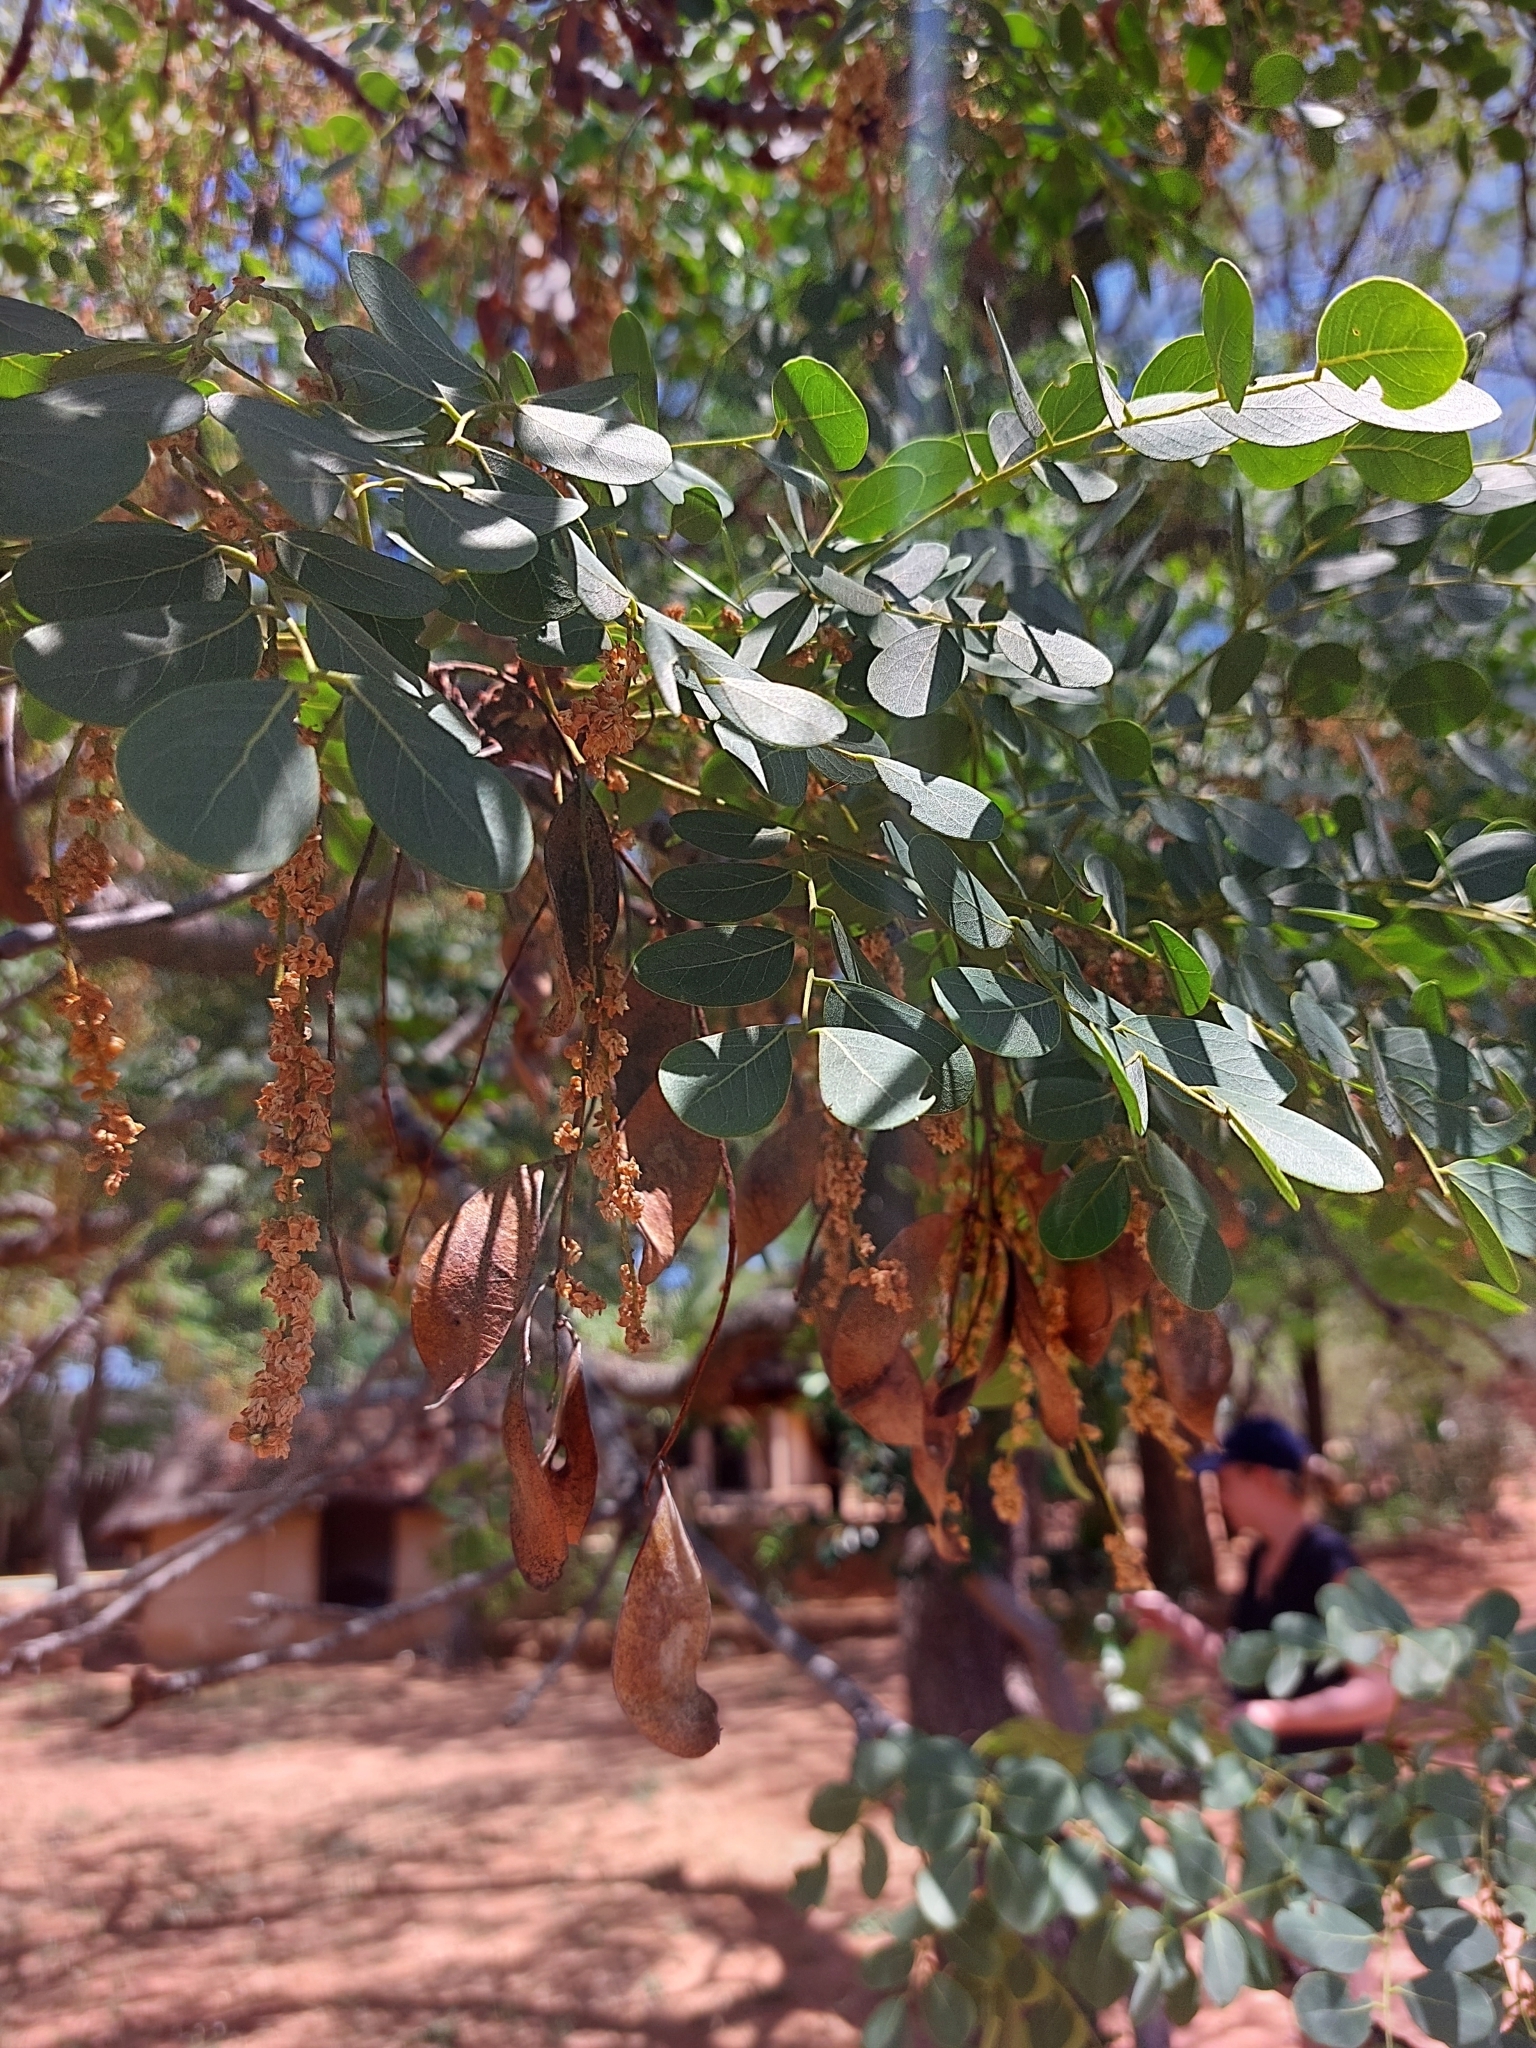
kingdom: Plantae
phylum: Tracheophyta
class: Magnoliopsida
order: Fabales
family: Fabaceae
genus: Burkea
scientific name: Burkea africana
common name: Mkalati tree
